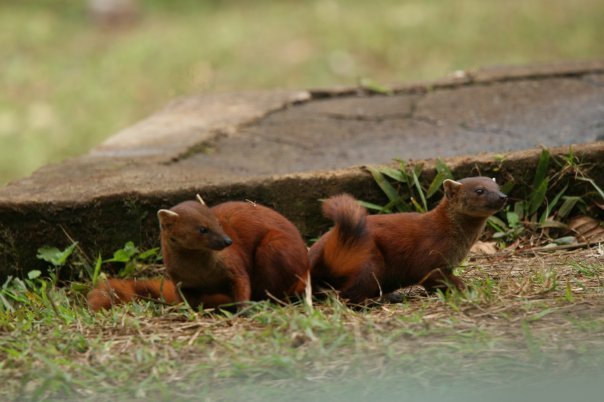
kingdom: Animalia
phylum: Chordata
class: Mammalia
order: Carnivora
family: Eupleridae
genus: Galidia
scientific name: Galidia elegans
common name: Ring-tailed mongoose
